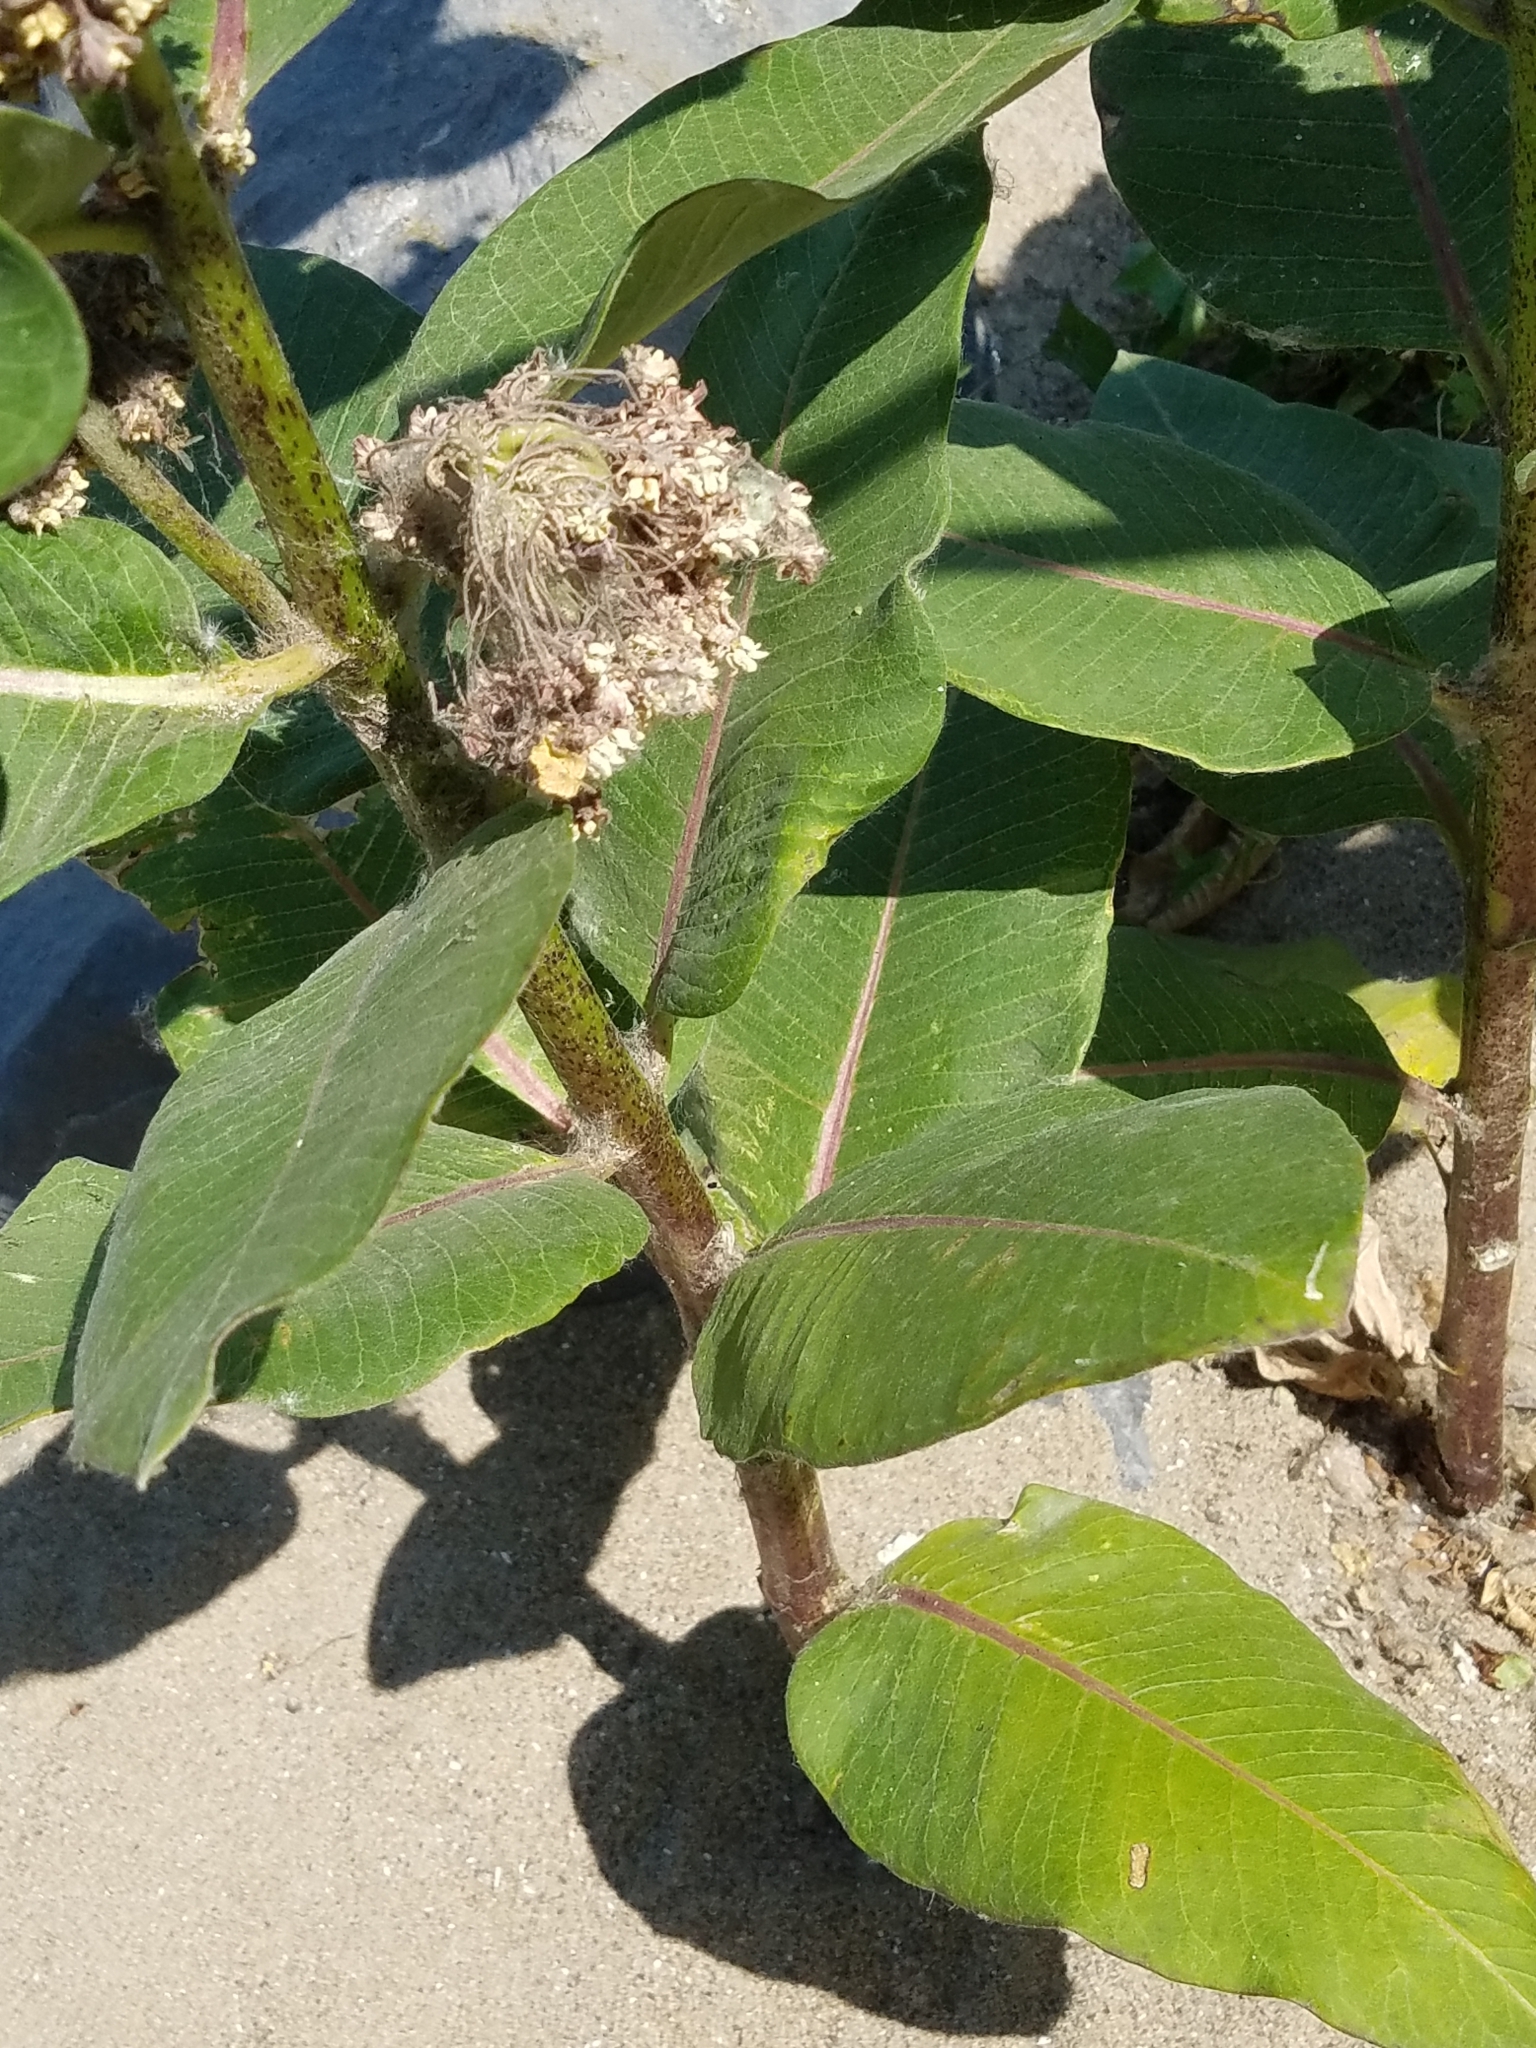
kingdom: Plantae
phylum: Tracheophyta
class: Magnoliopsida
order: Gentianales
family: Apocynaceae
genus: Asclepias
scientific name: Asclepias syriaca
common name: Common milkweed
